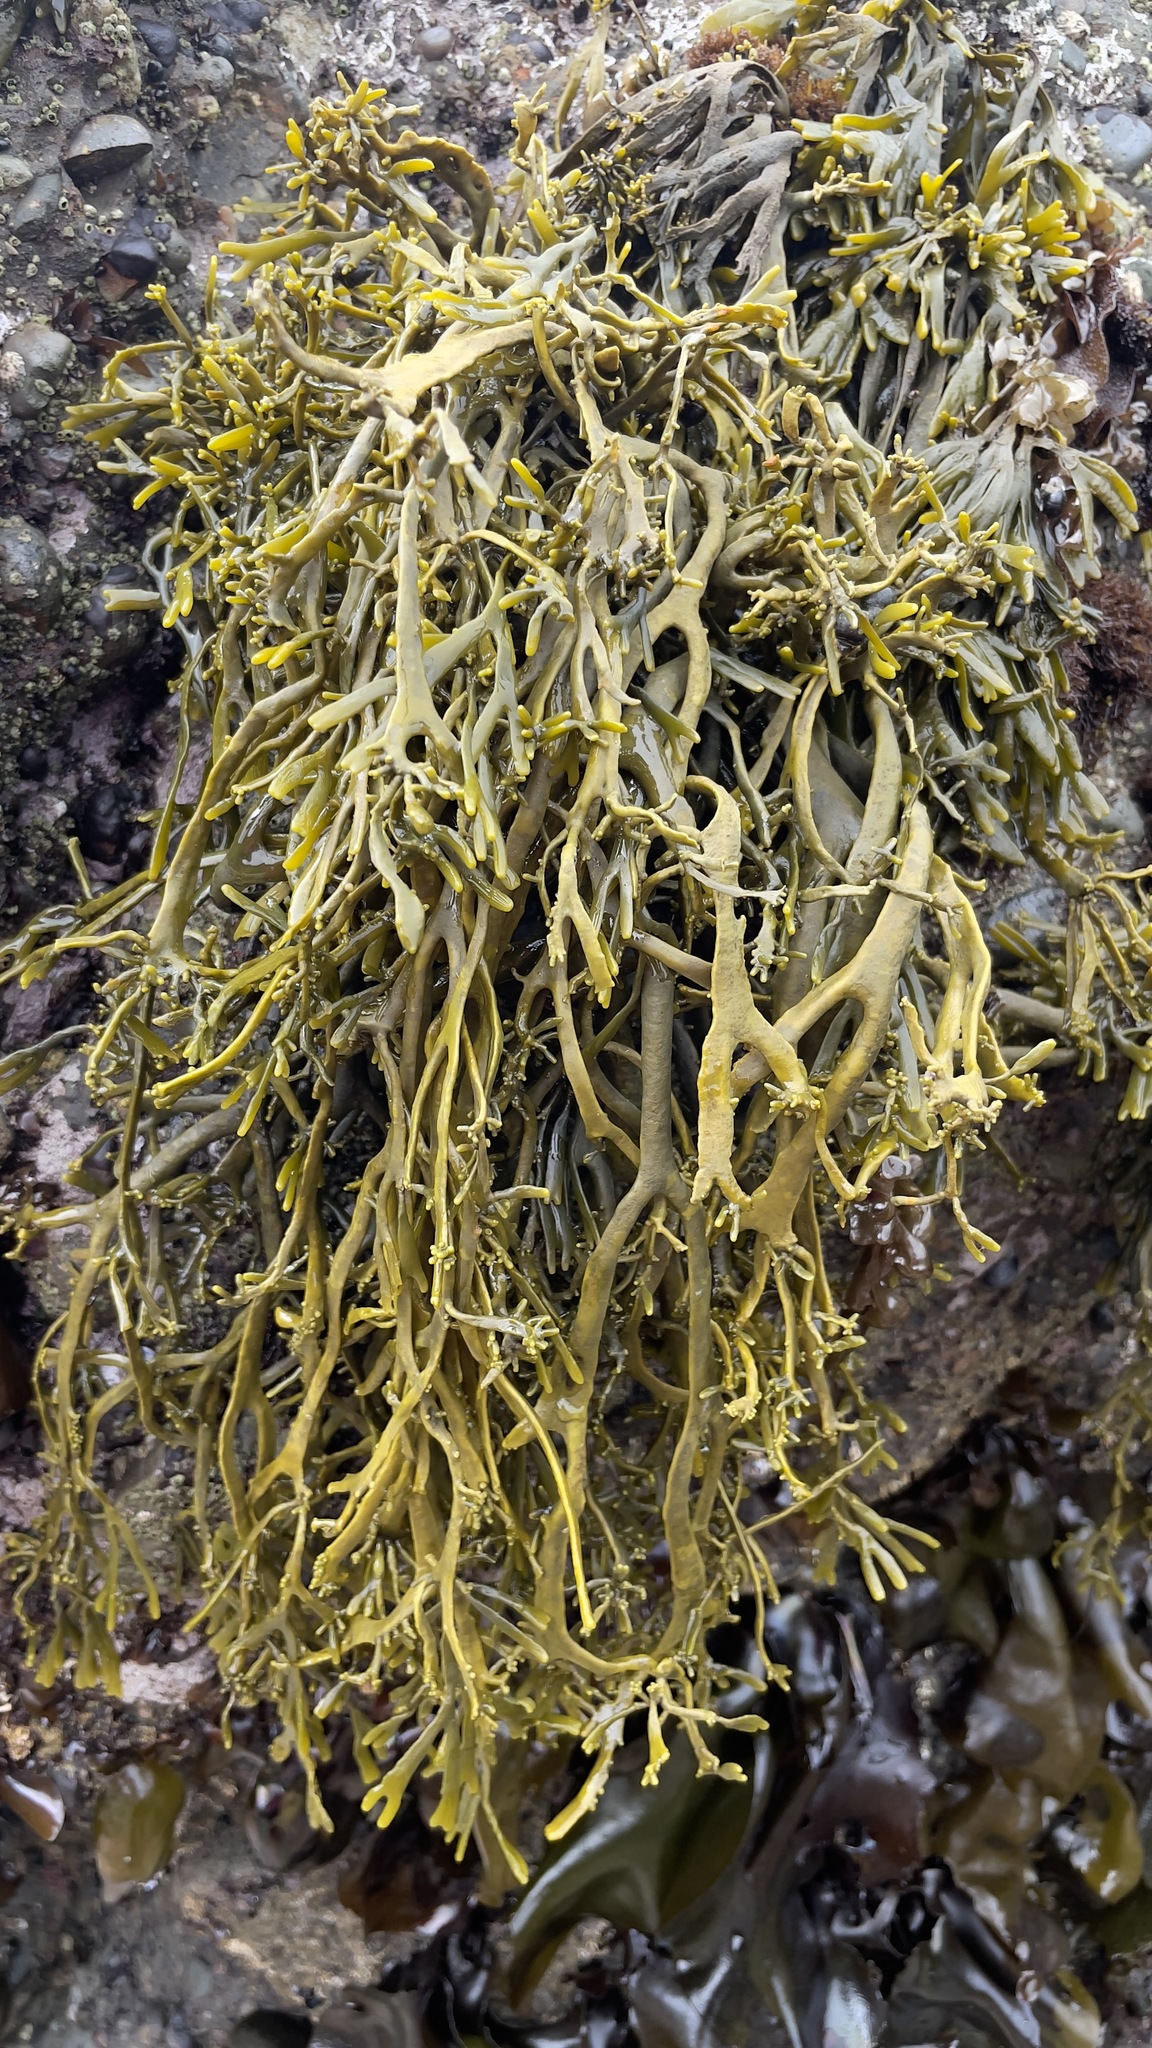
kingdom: Chromista
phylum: Ochrophyta
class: Phaeophyceae
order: Fucales
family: Fucaceae
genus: Silvetia
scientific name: Silvetia
